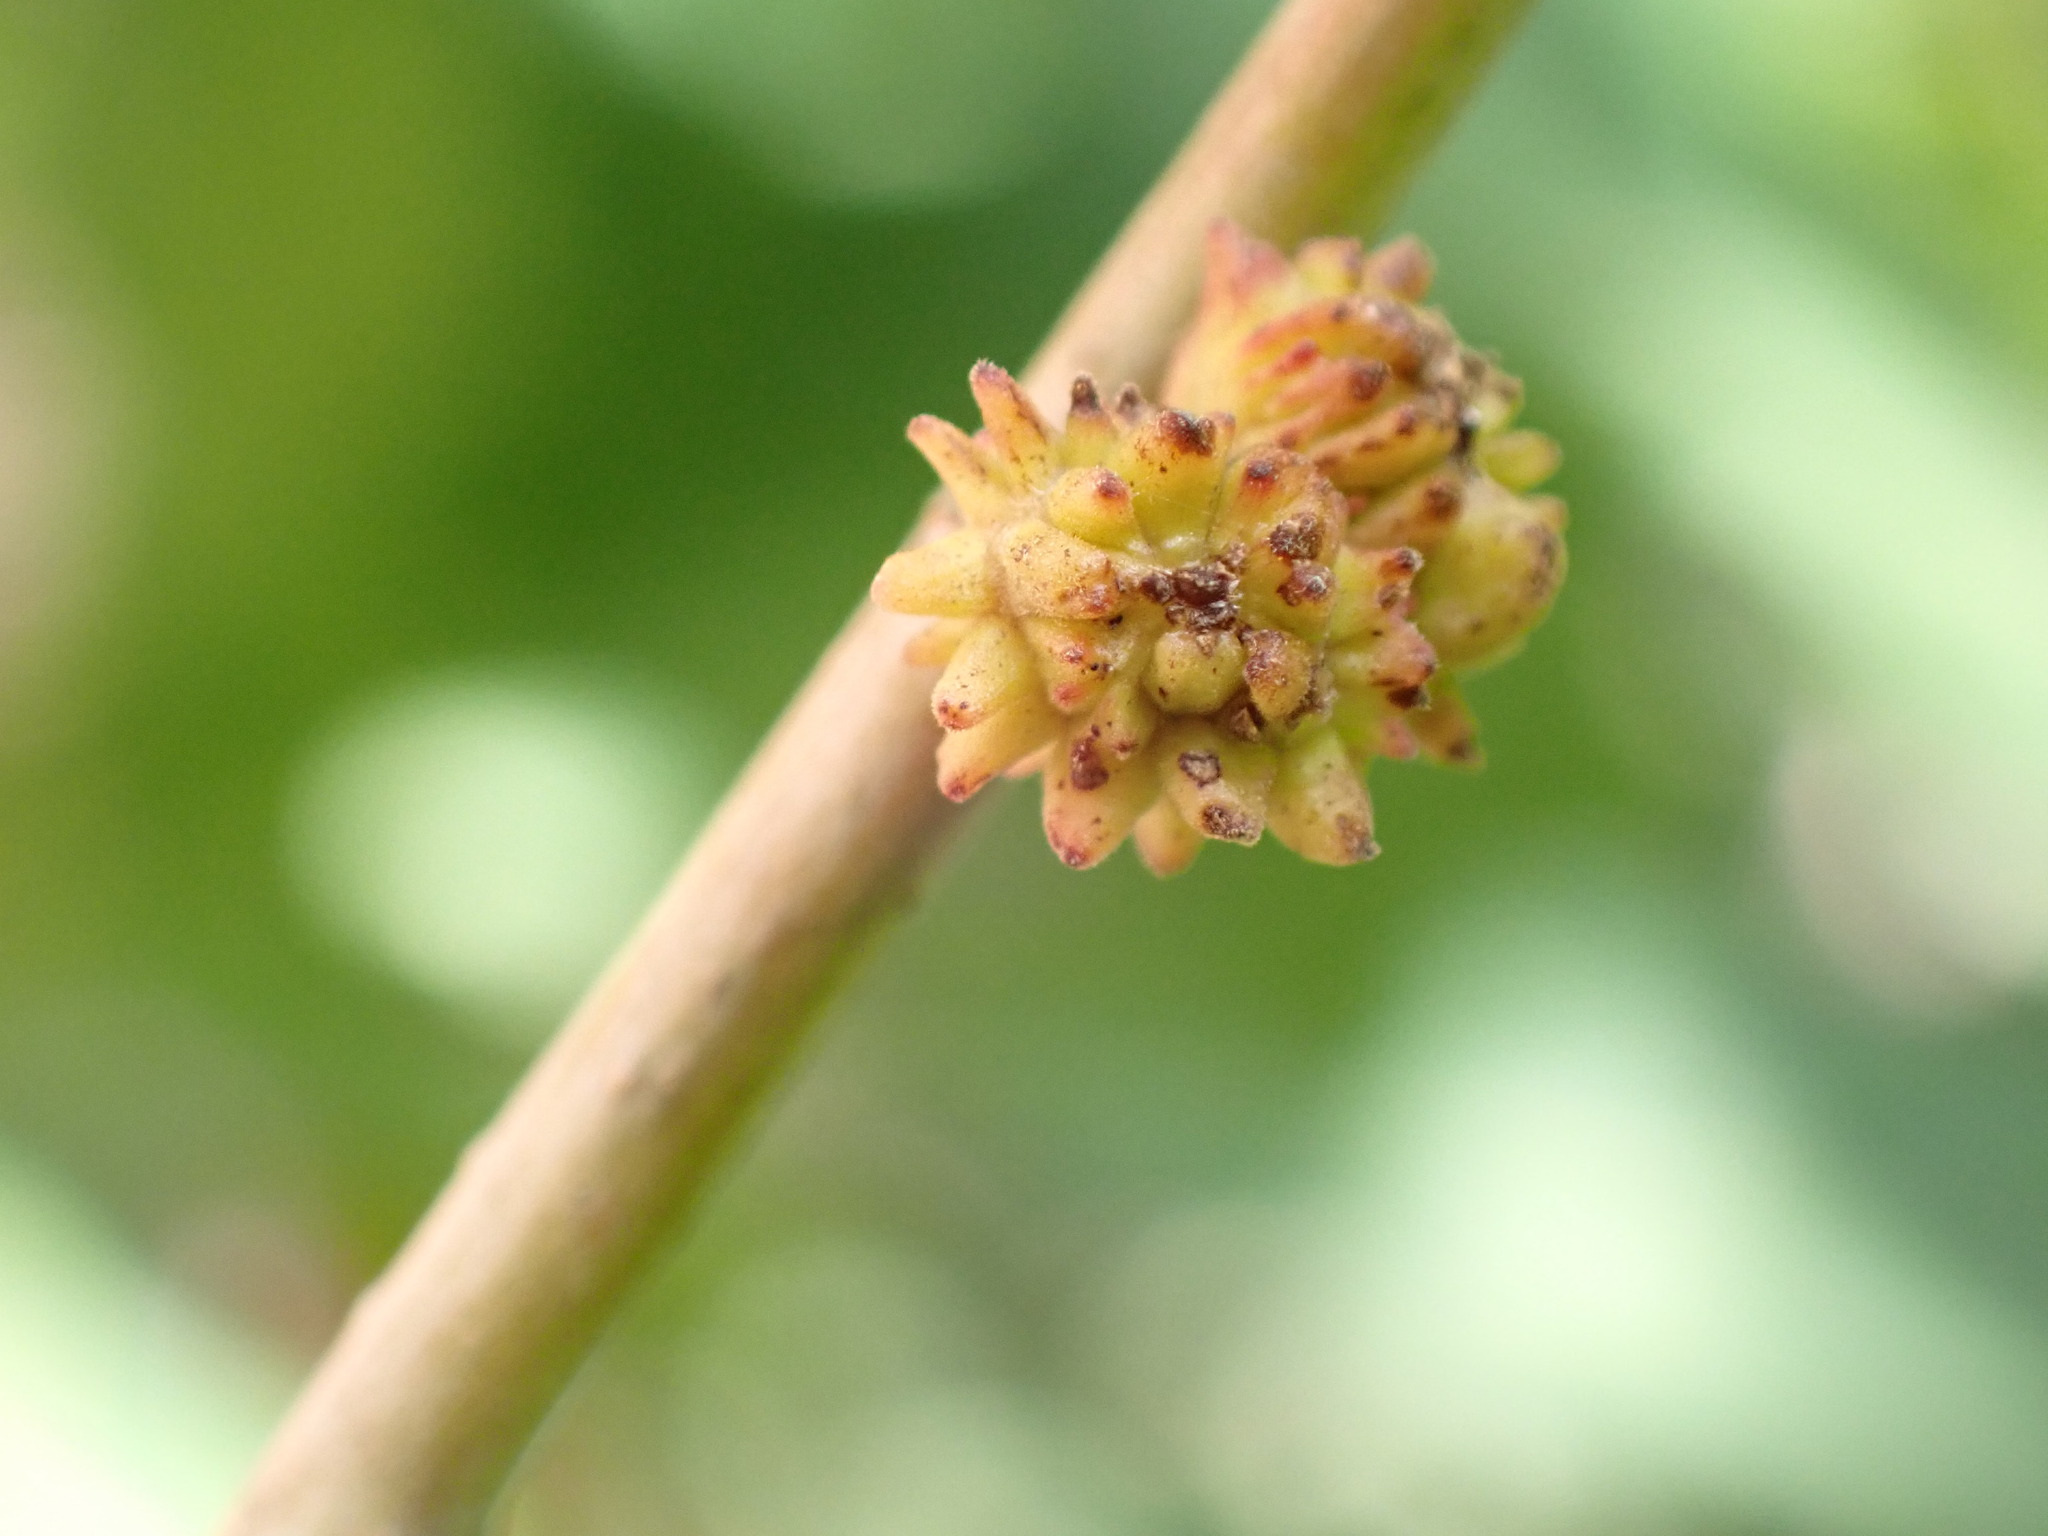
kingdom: Animalia
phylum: Arthropoda
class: Insecta
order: Hymenoptera
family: Cynipidae
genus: Andricus
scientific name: Andricus gemmeus
